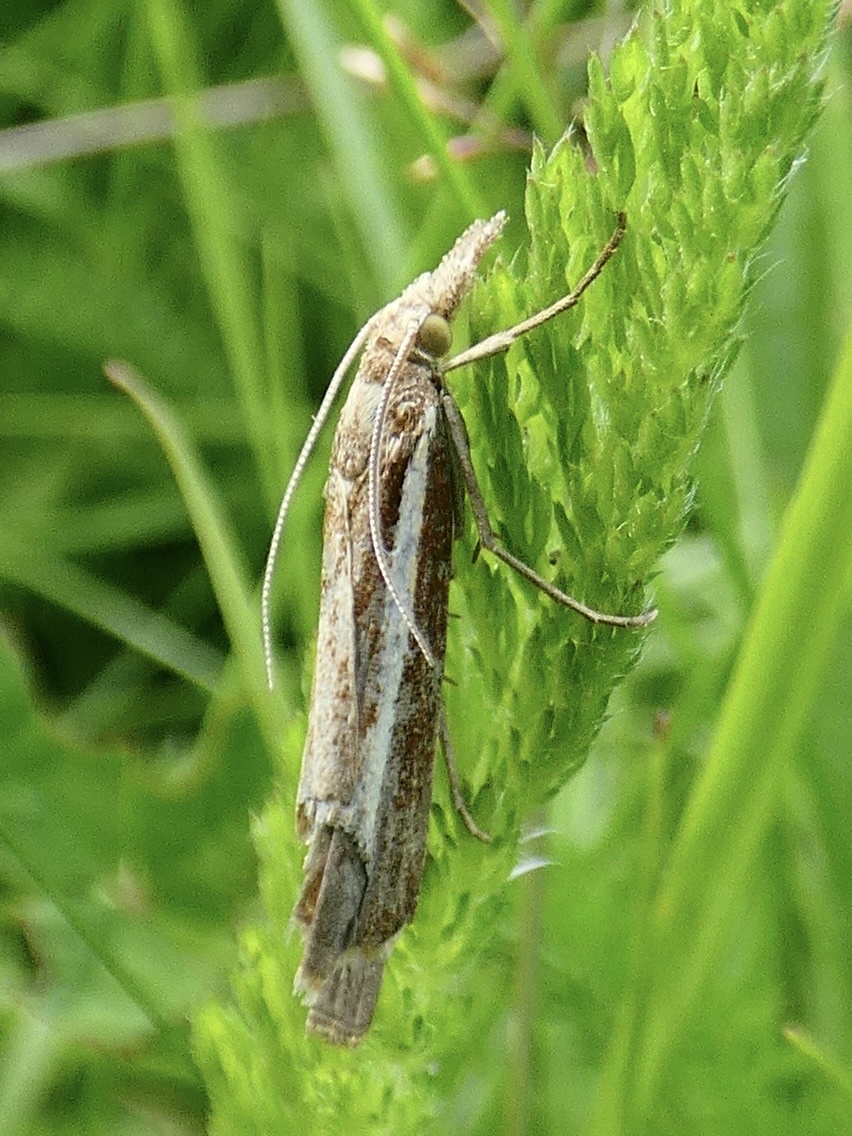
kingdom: Animalia
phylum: Arthropoda
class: Insecta
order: Lepidoptera
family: Crambidae
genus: Agriphila
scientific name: Agriphila tristellus
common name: Common grass-veneer
